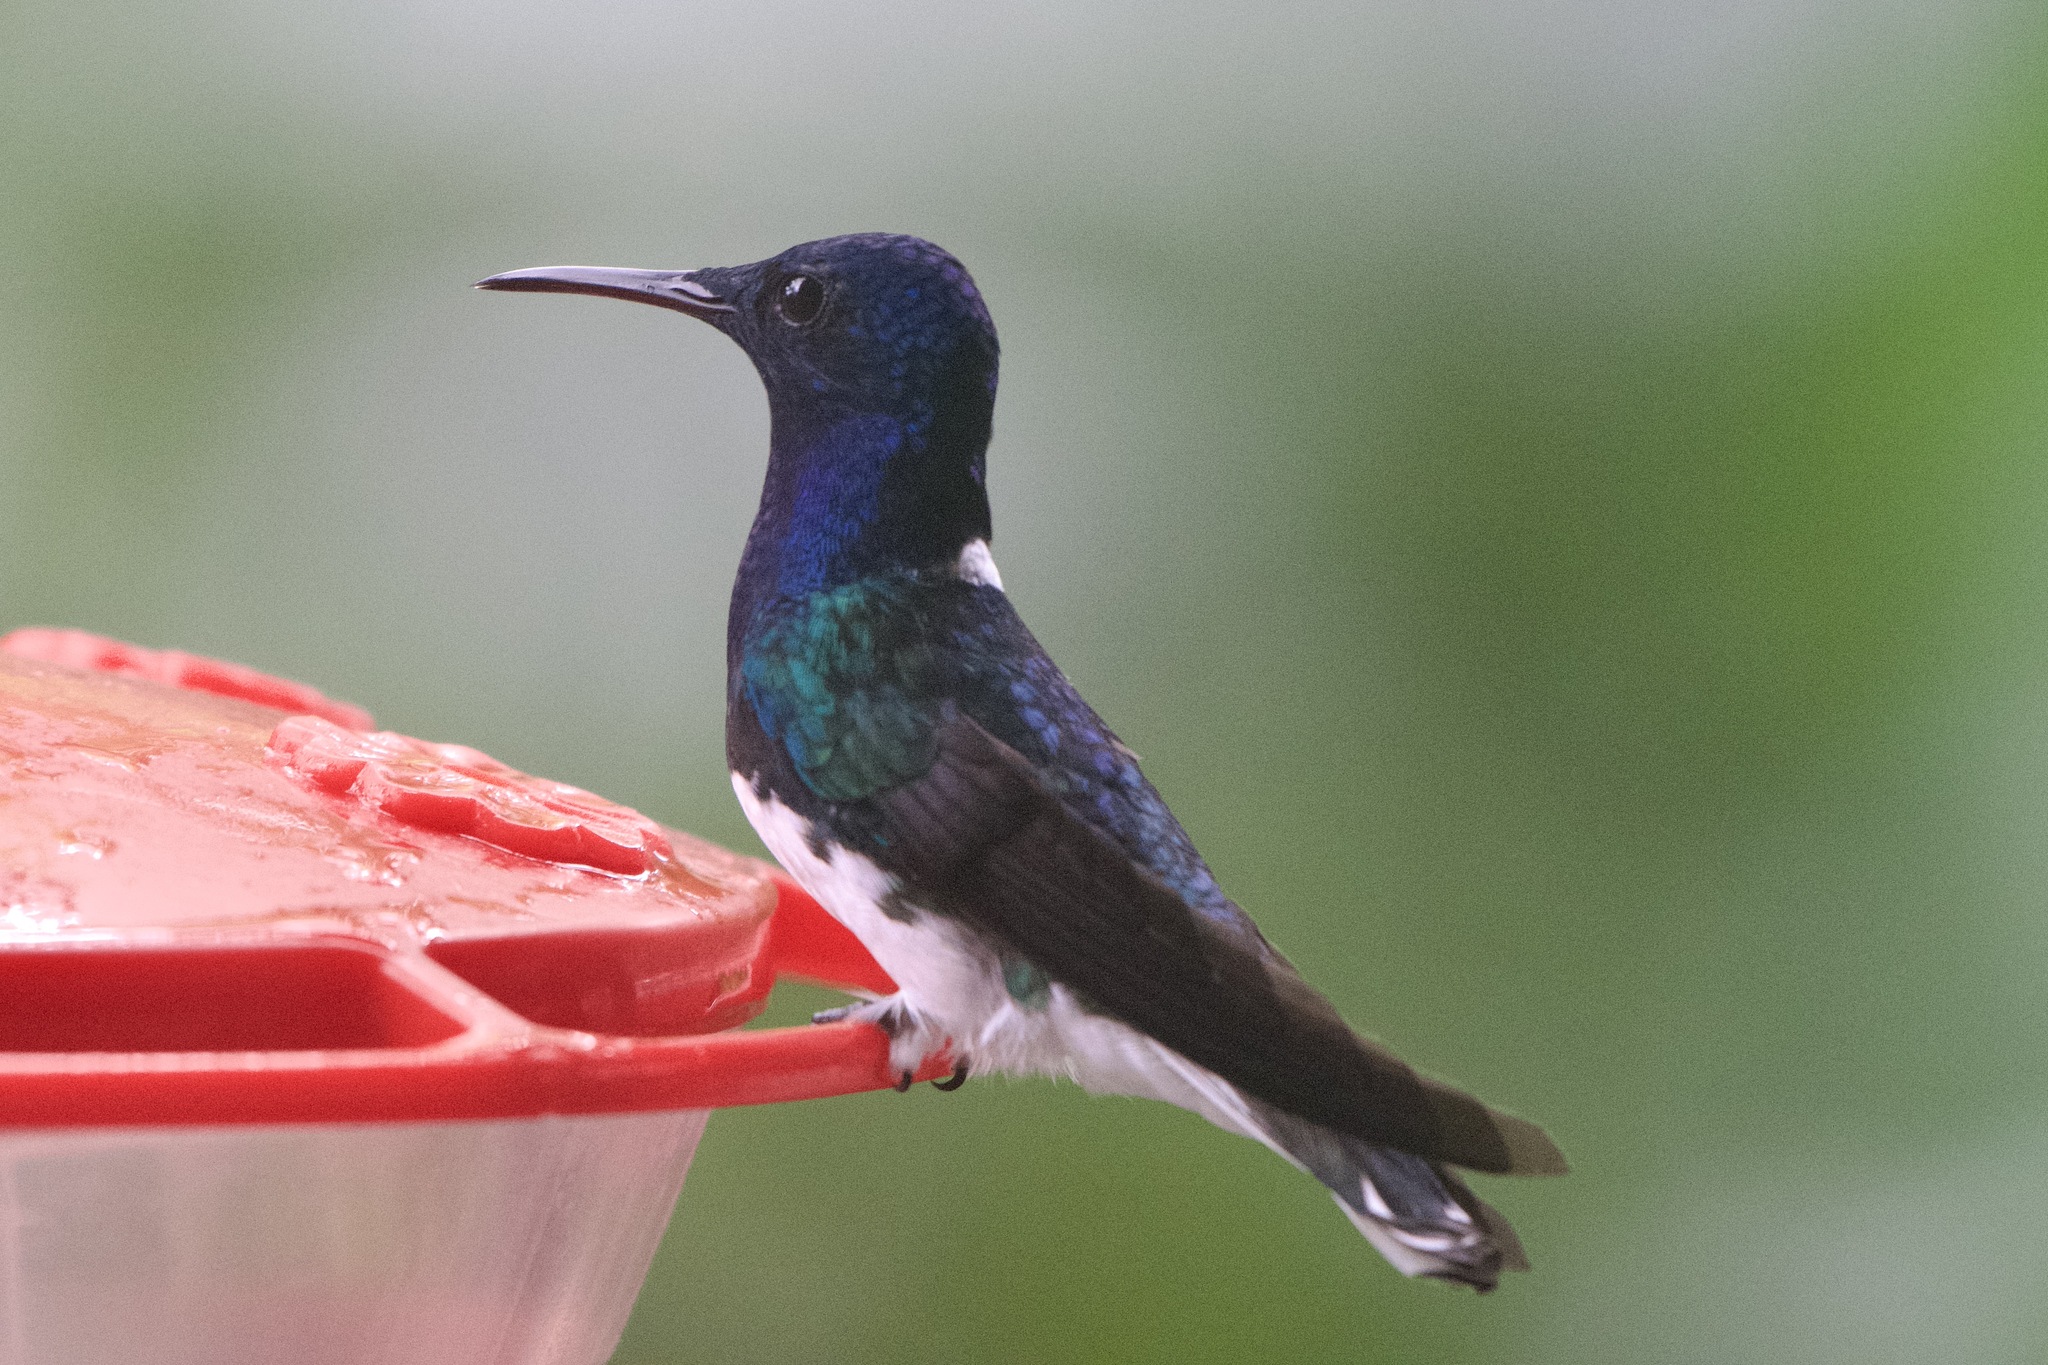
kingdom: Animalia
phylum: Chordata
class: Aves
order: Apodiformes
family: Trochilidae
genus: Florisuga
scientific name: Florisuga mellivora
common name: White-necked jacobin
